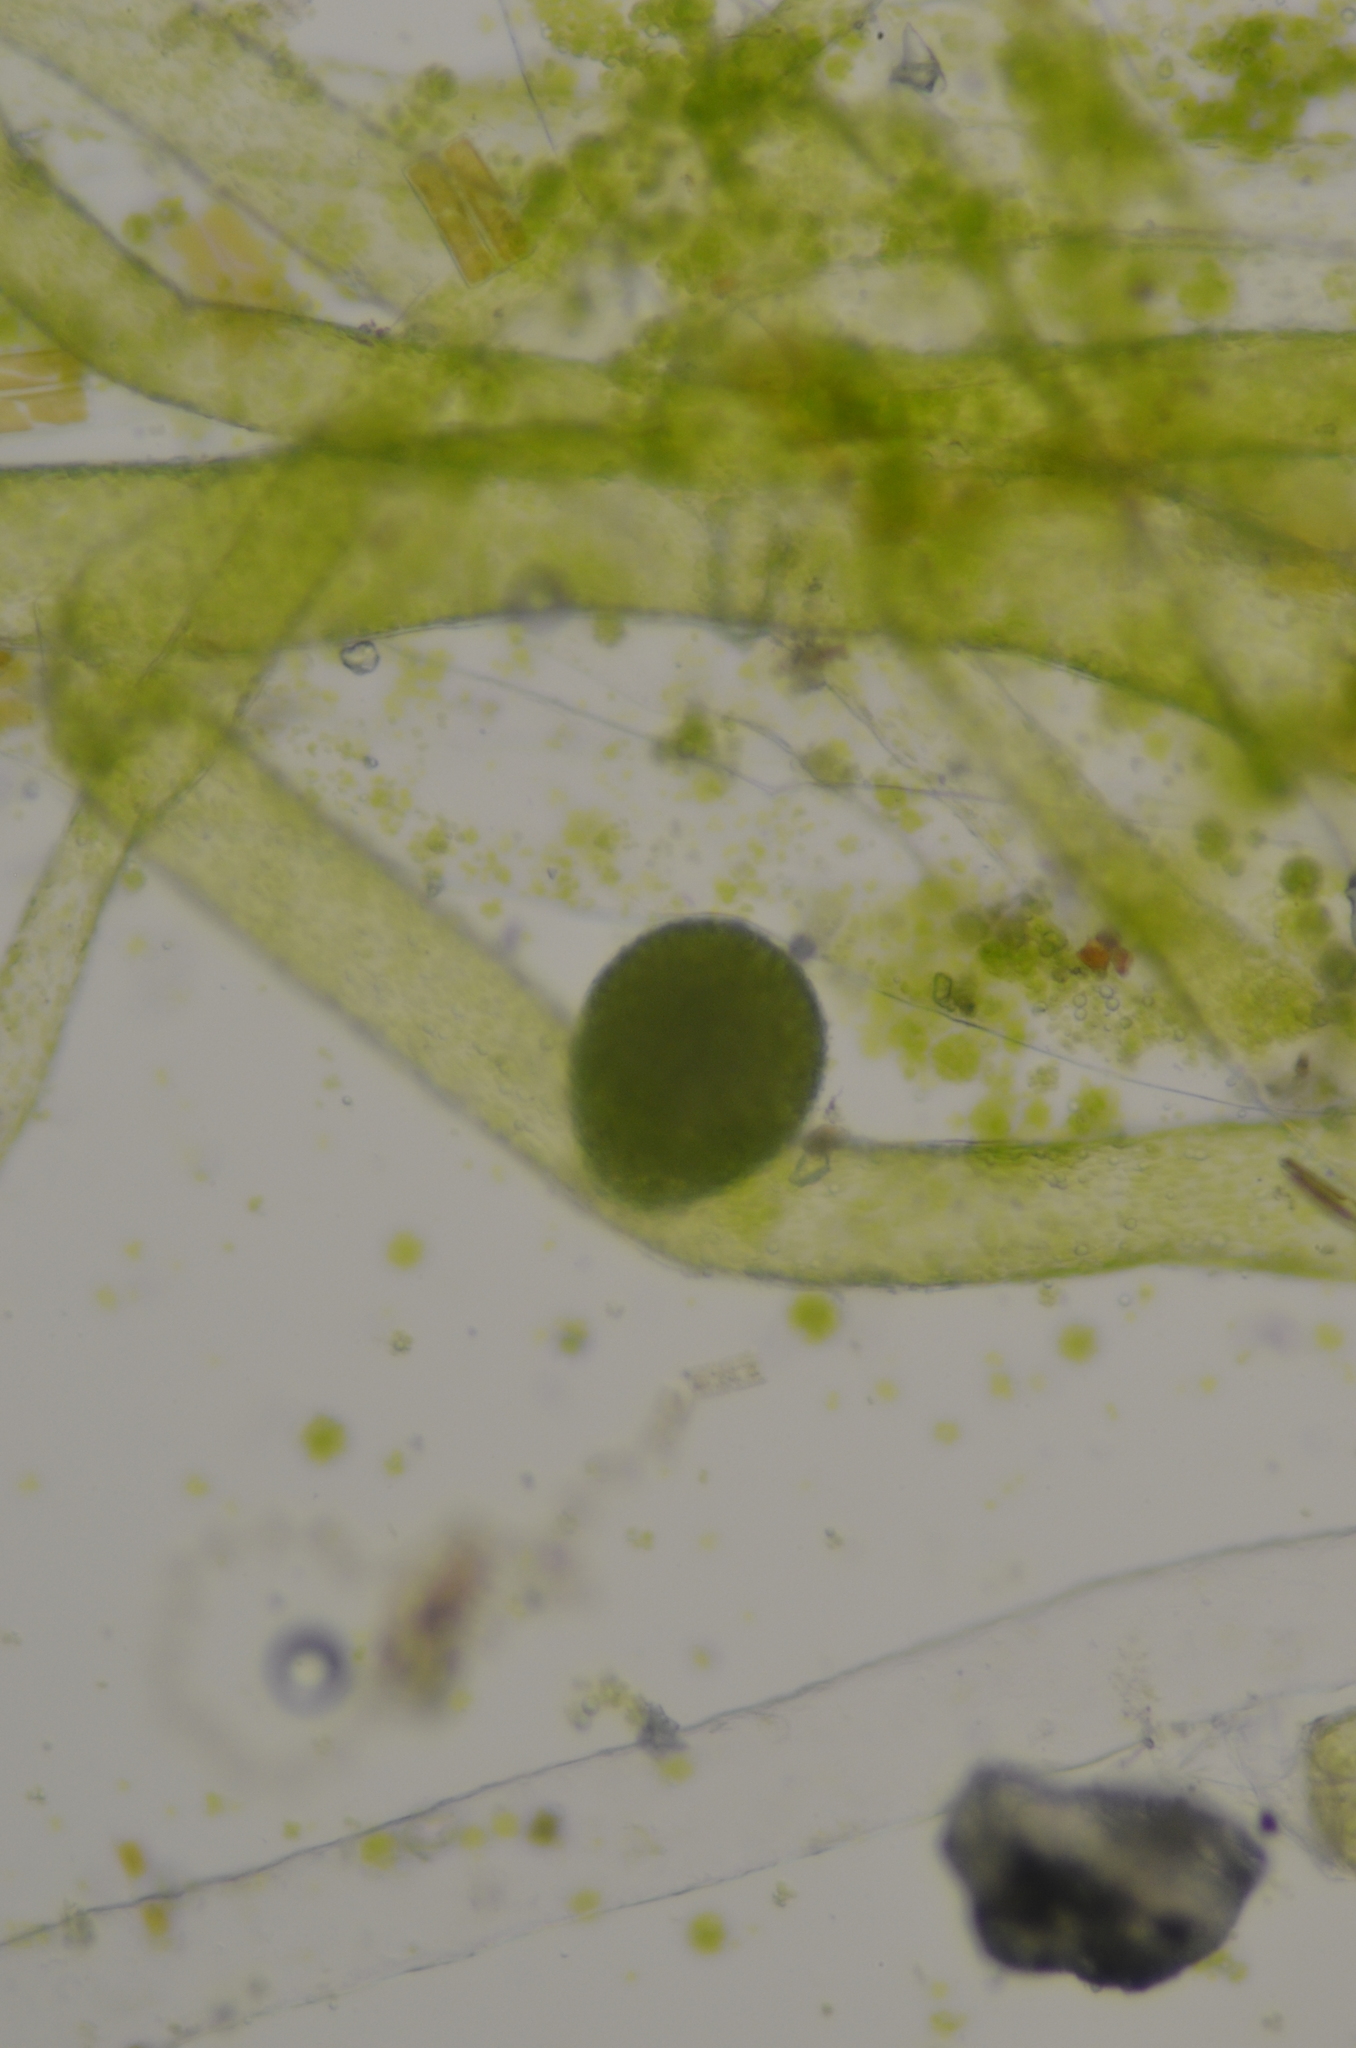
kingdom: Chromista
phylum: Ochrophyta
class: Xanthophyceae
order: Vaucheriales
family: Vaucheriaceae
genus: Vaucheria
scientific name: Vaucheria
